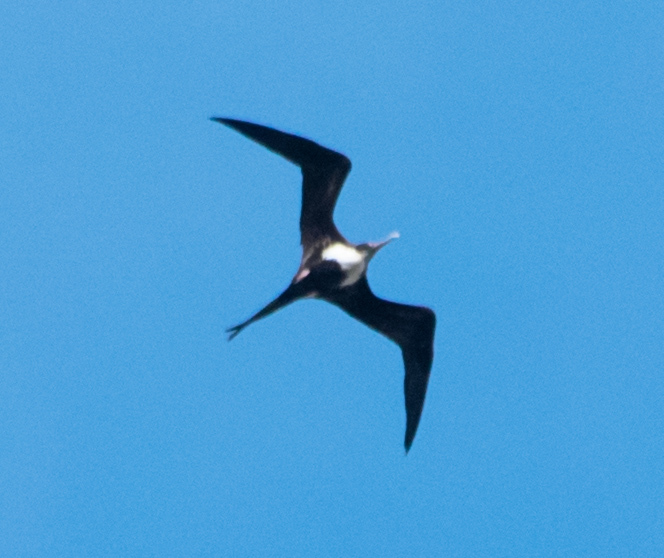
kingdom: Animalia
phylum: Chordata
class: Aves
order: Suliformes
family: Fregatidae
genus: Fregata
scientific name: Fregata minor
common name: Great frigatebird
